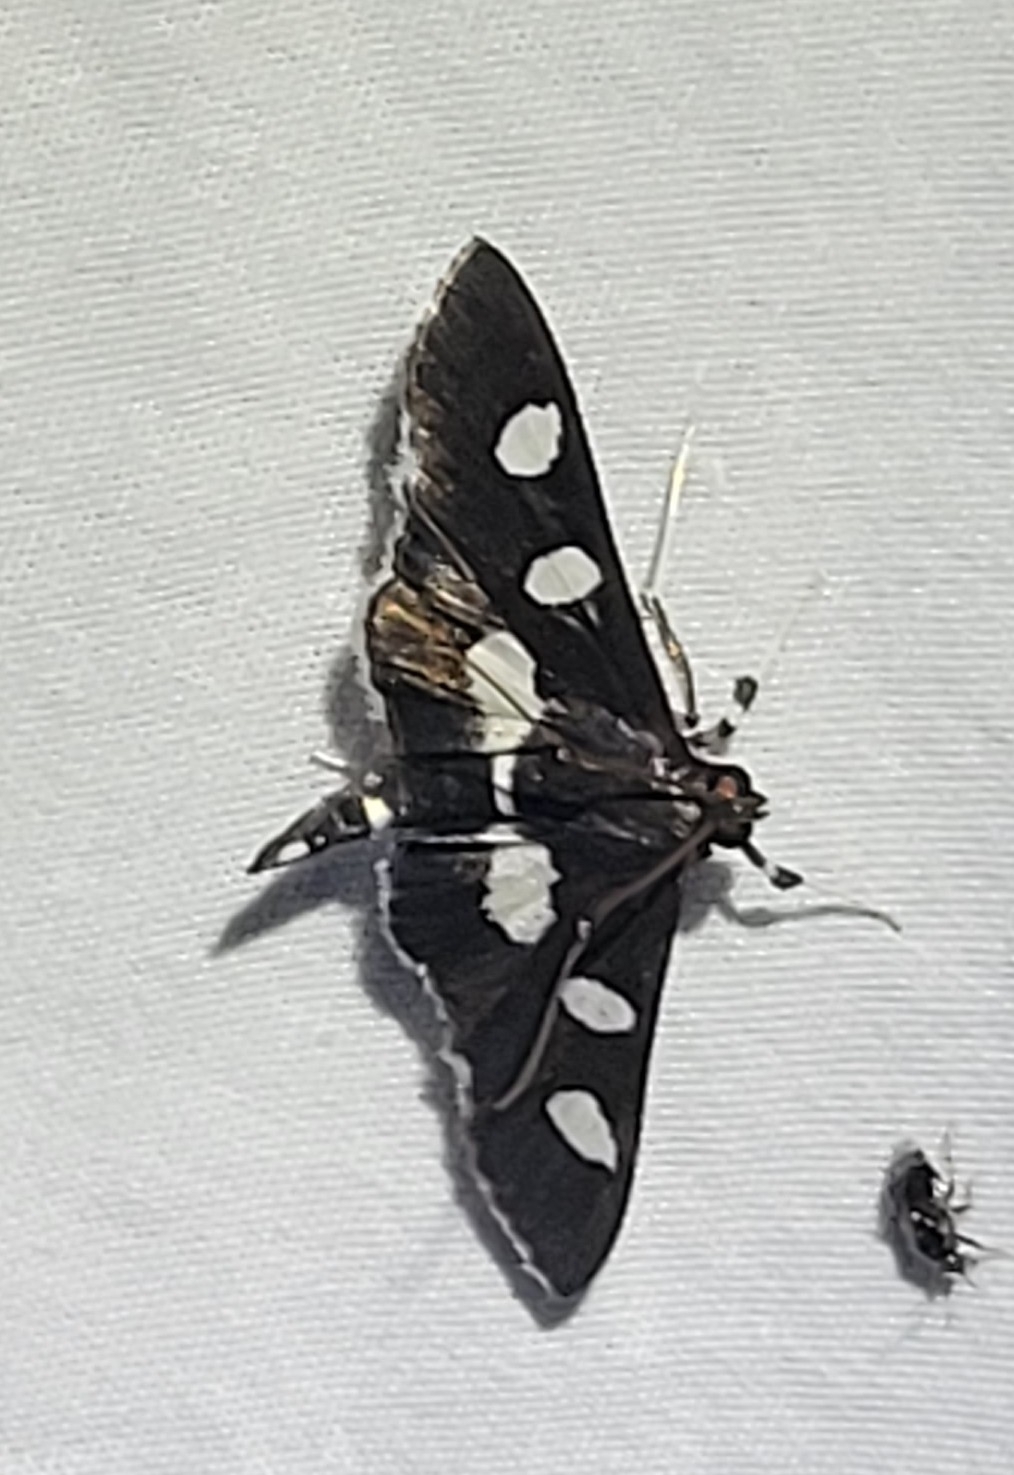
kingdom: Animalia
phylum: Arthropoda
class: Insecta
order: Lepidoptera
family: Crambidae
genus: Desmia
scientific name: Desmia
